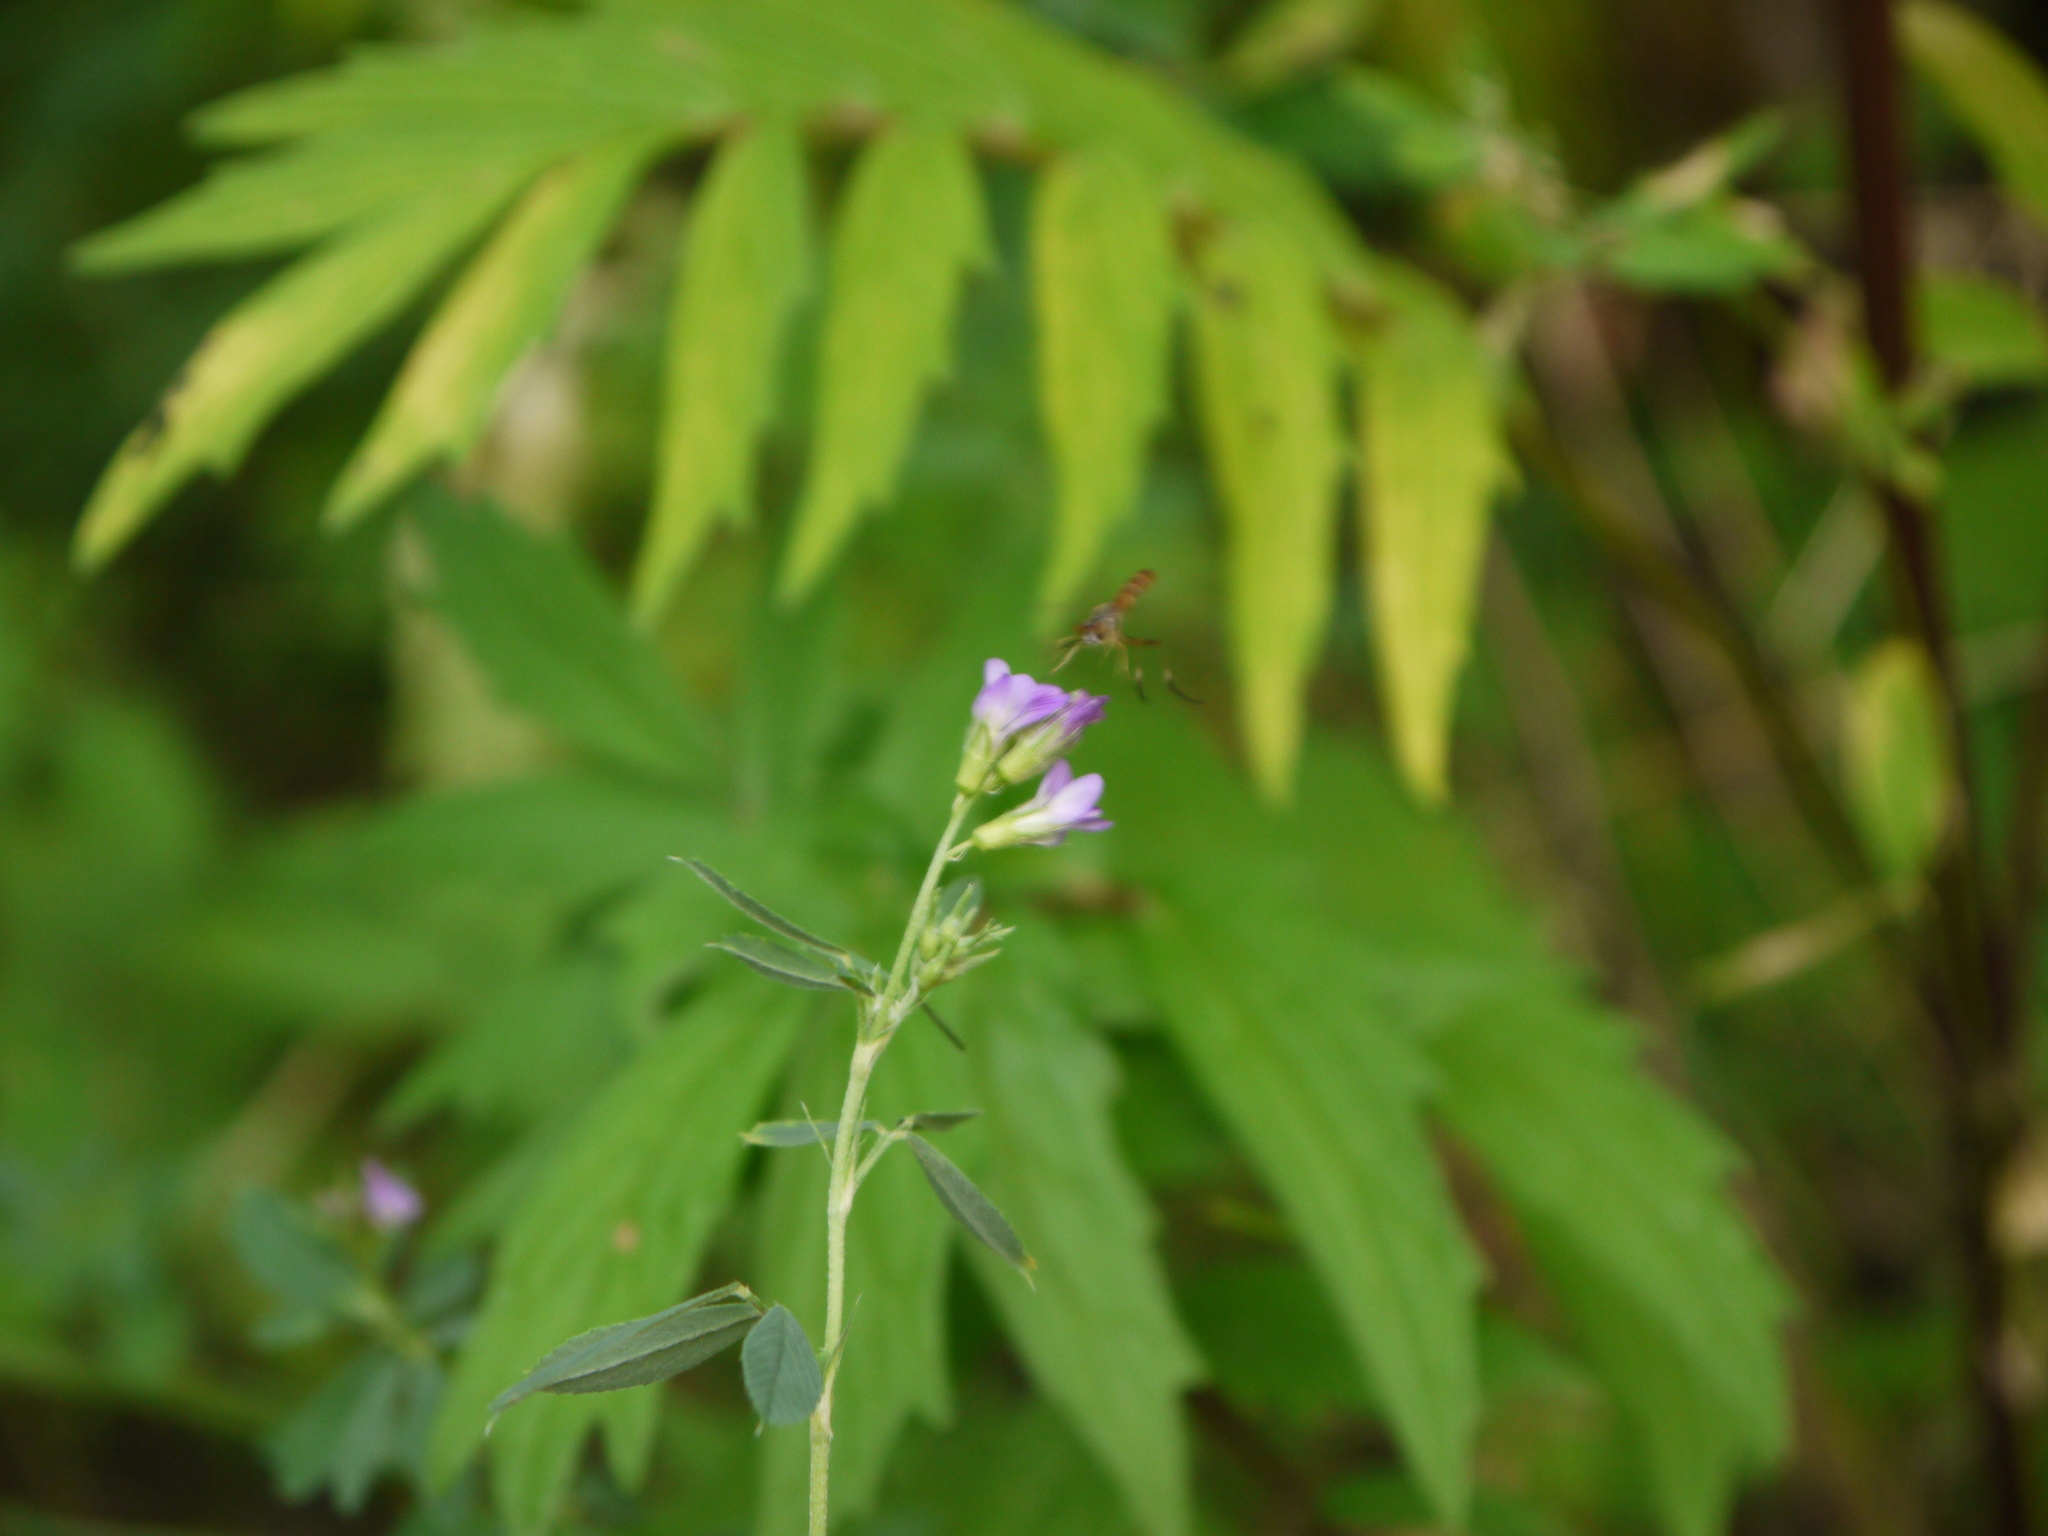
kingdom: Plantae
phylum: Tracheophyta
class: Magnoliopsida
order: Fabales
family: Fabaceae
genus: Medicago
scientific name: Medicago sativa
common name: Alfalfa
